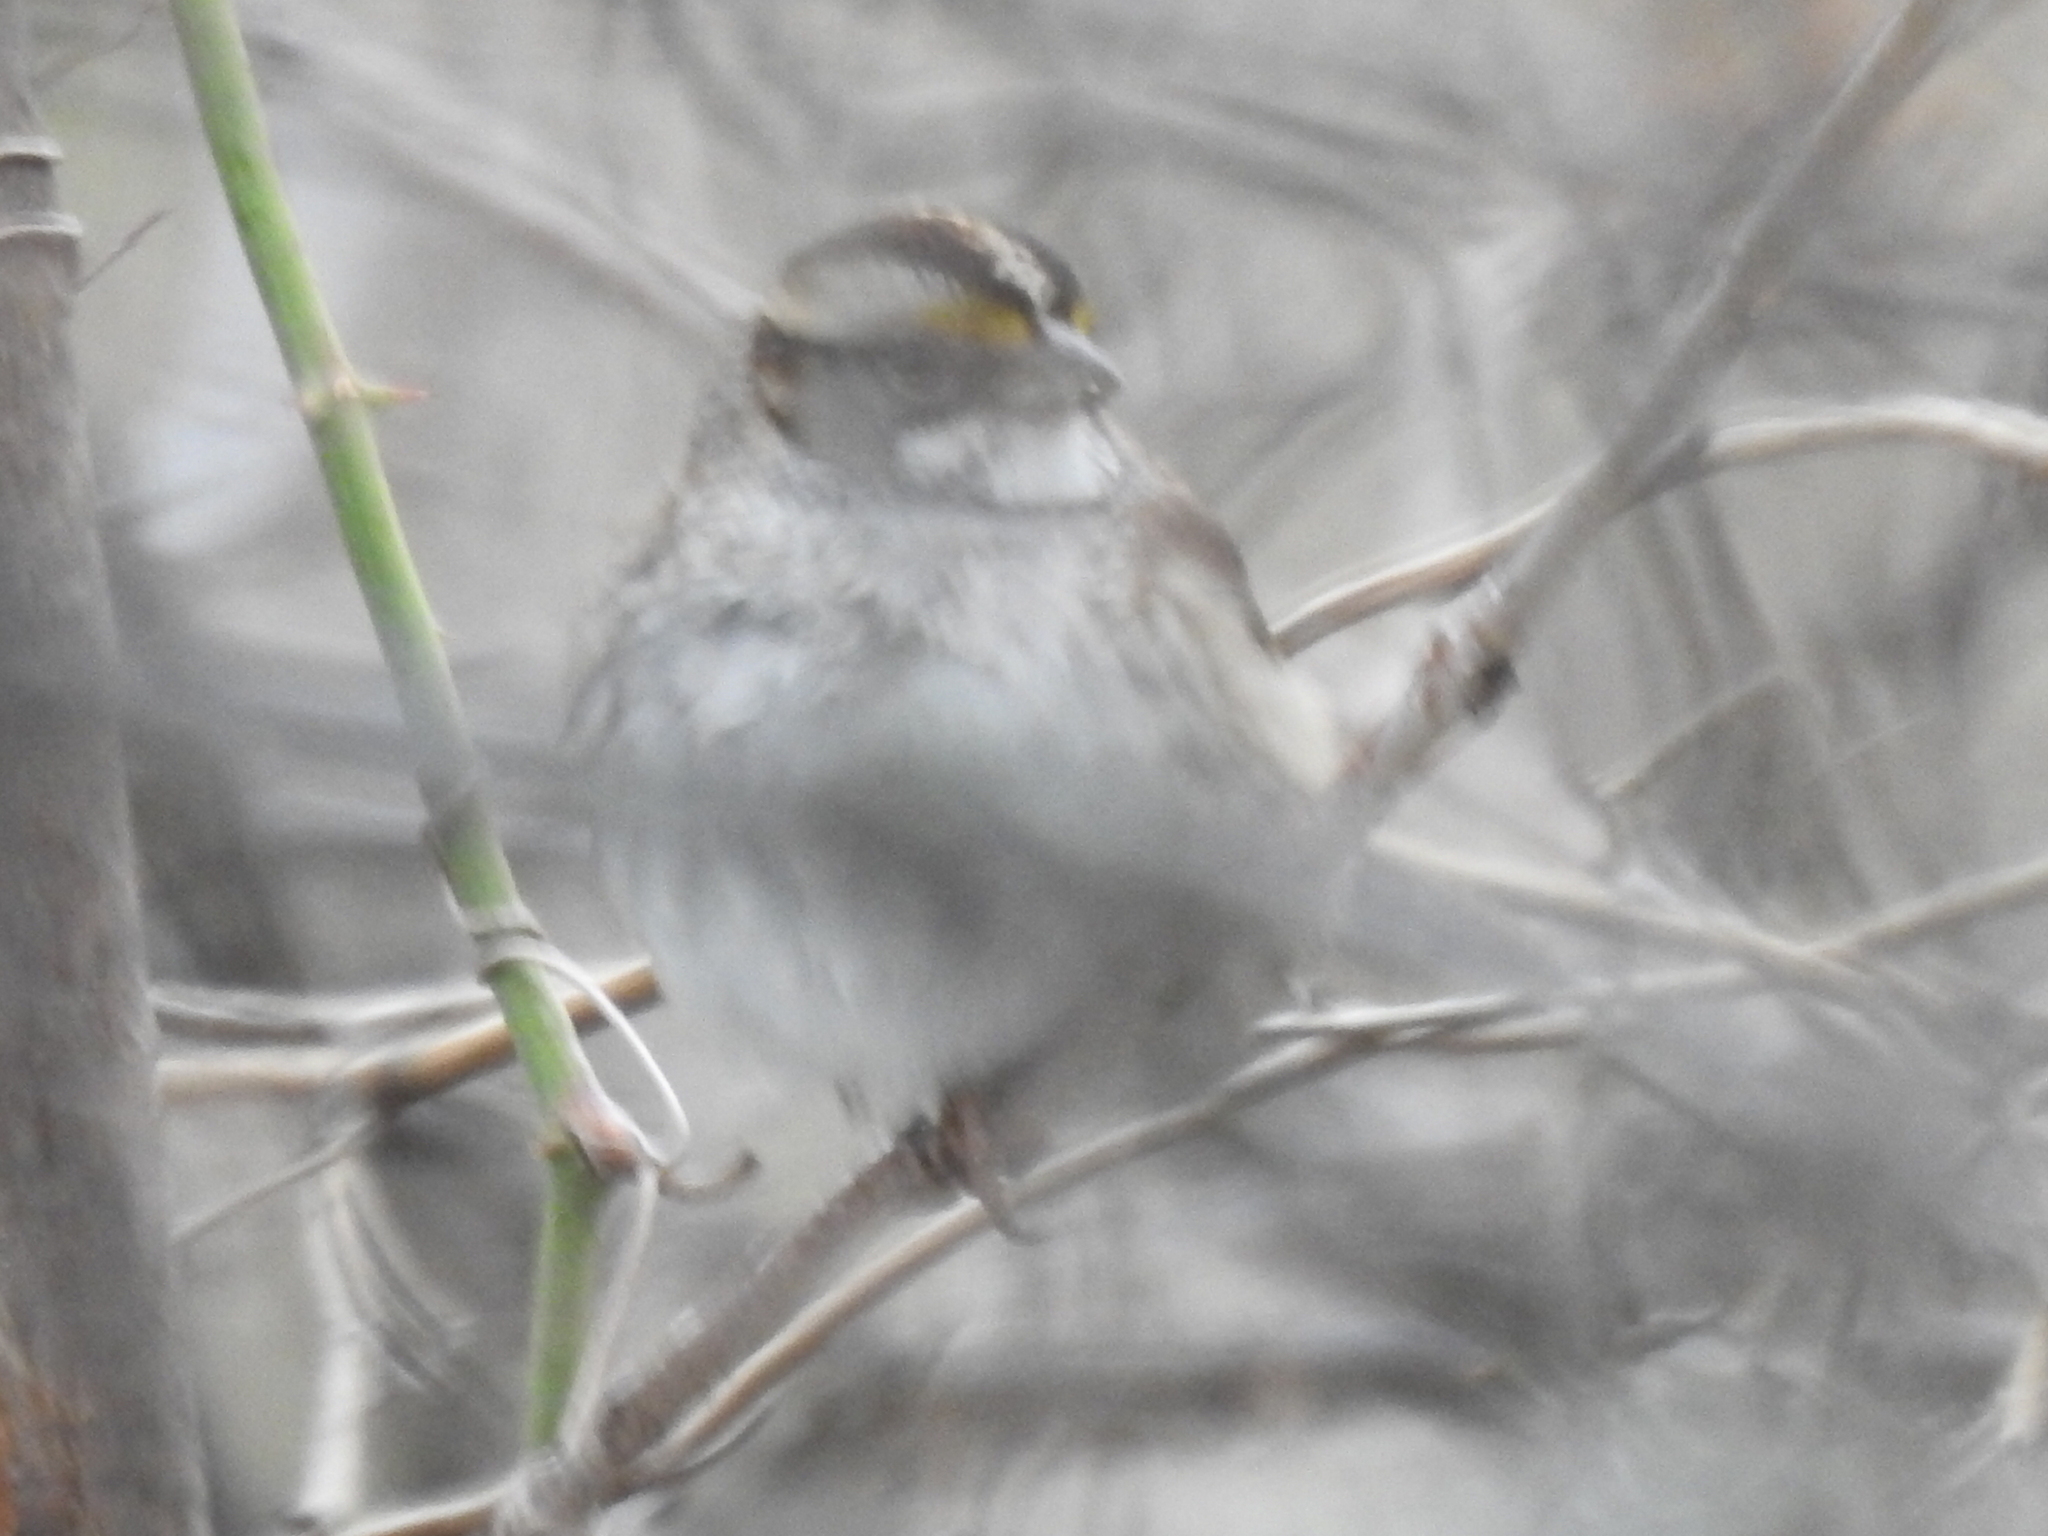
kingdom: Animalia
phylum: Chordata
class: Aves
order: Passeriformes
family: Passerellidae
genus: Zonotrichia
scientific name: Zonotrichia albicollis
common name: White-throated sparrow
